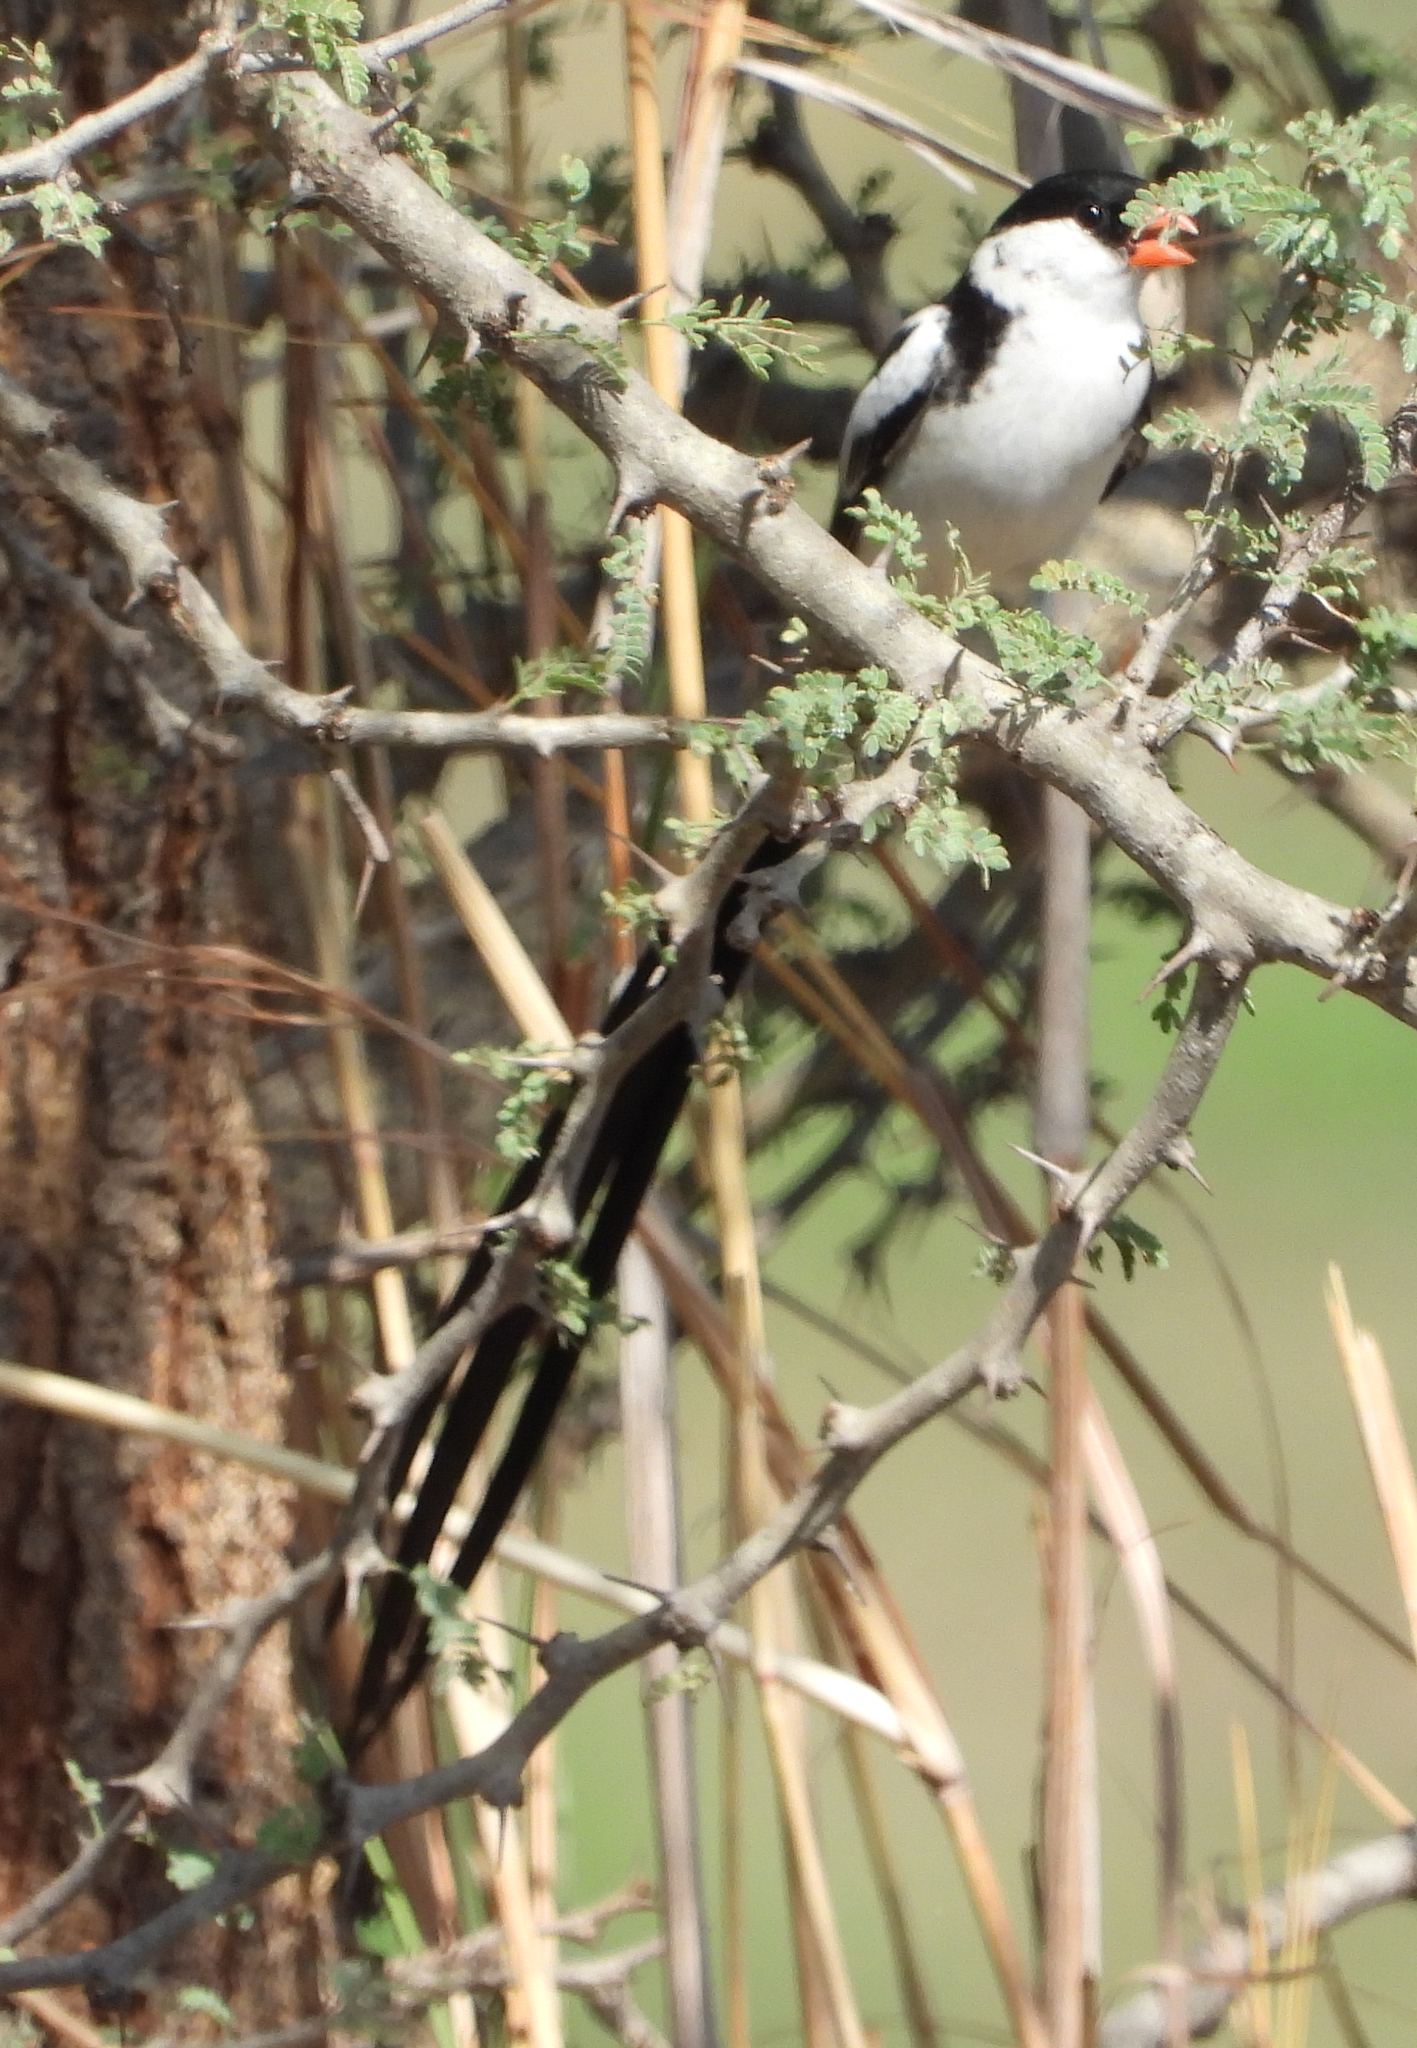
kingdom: Animalia
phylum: Chordata
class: Aves
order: Passeriformes
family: Viduidae
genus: Vidua
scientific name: Vidua macroura
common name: Pin-tailed whydah
